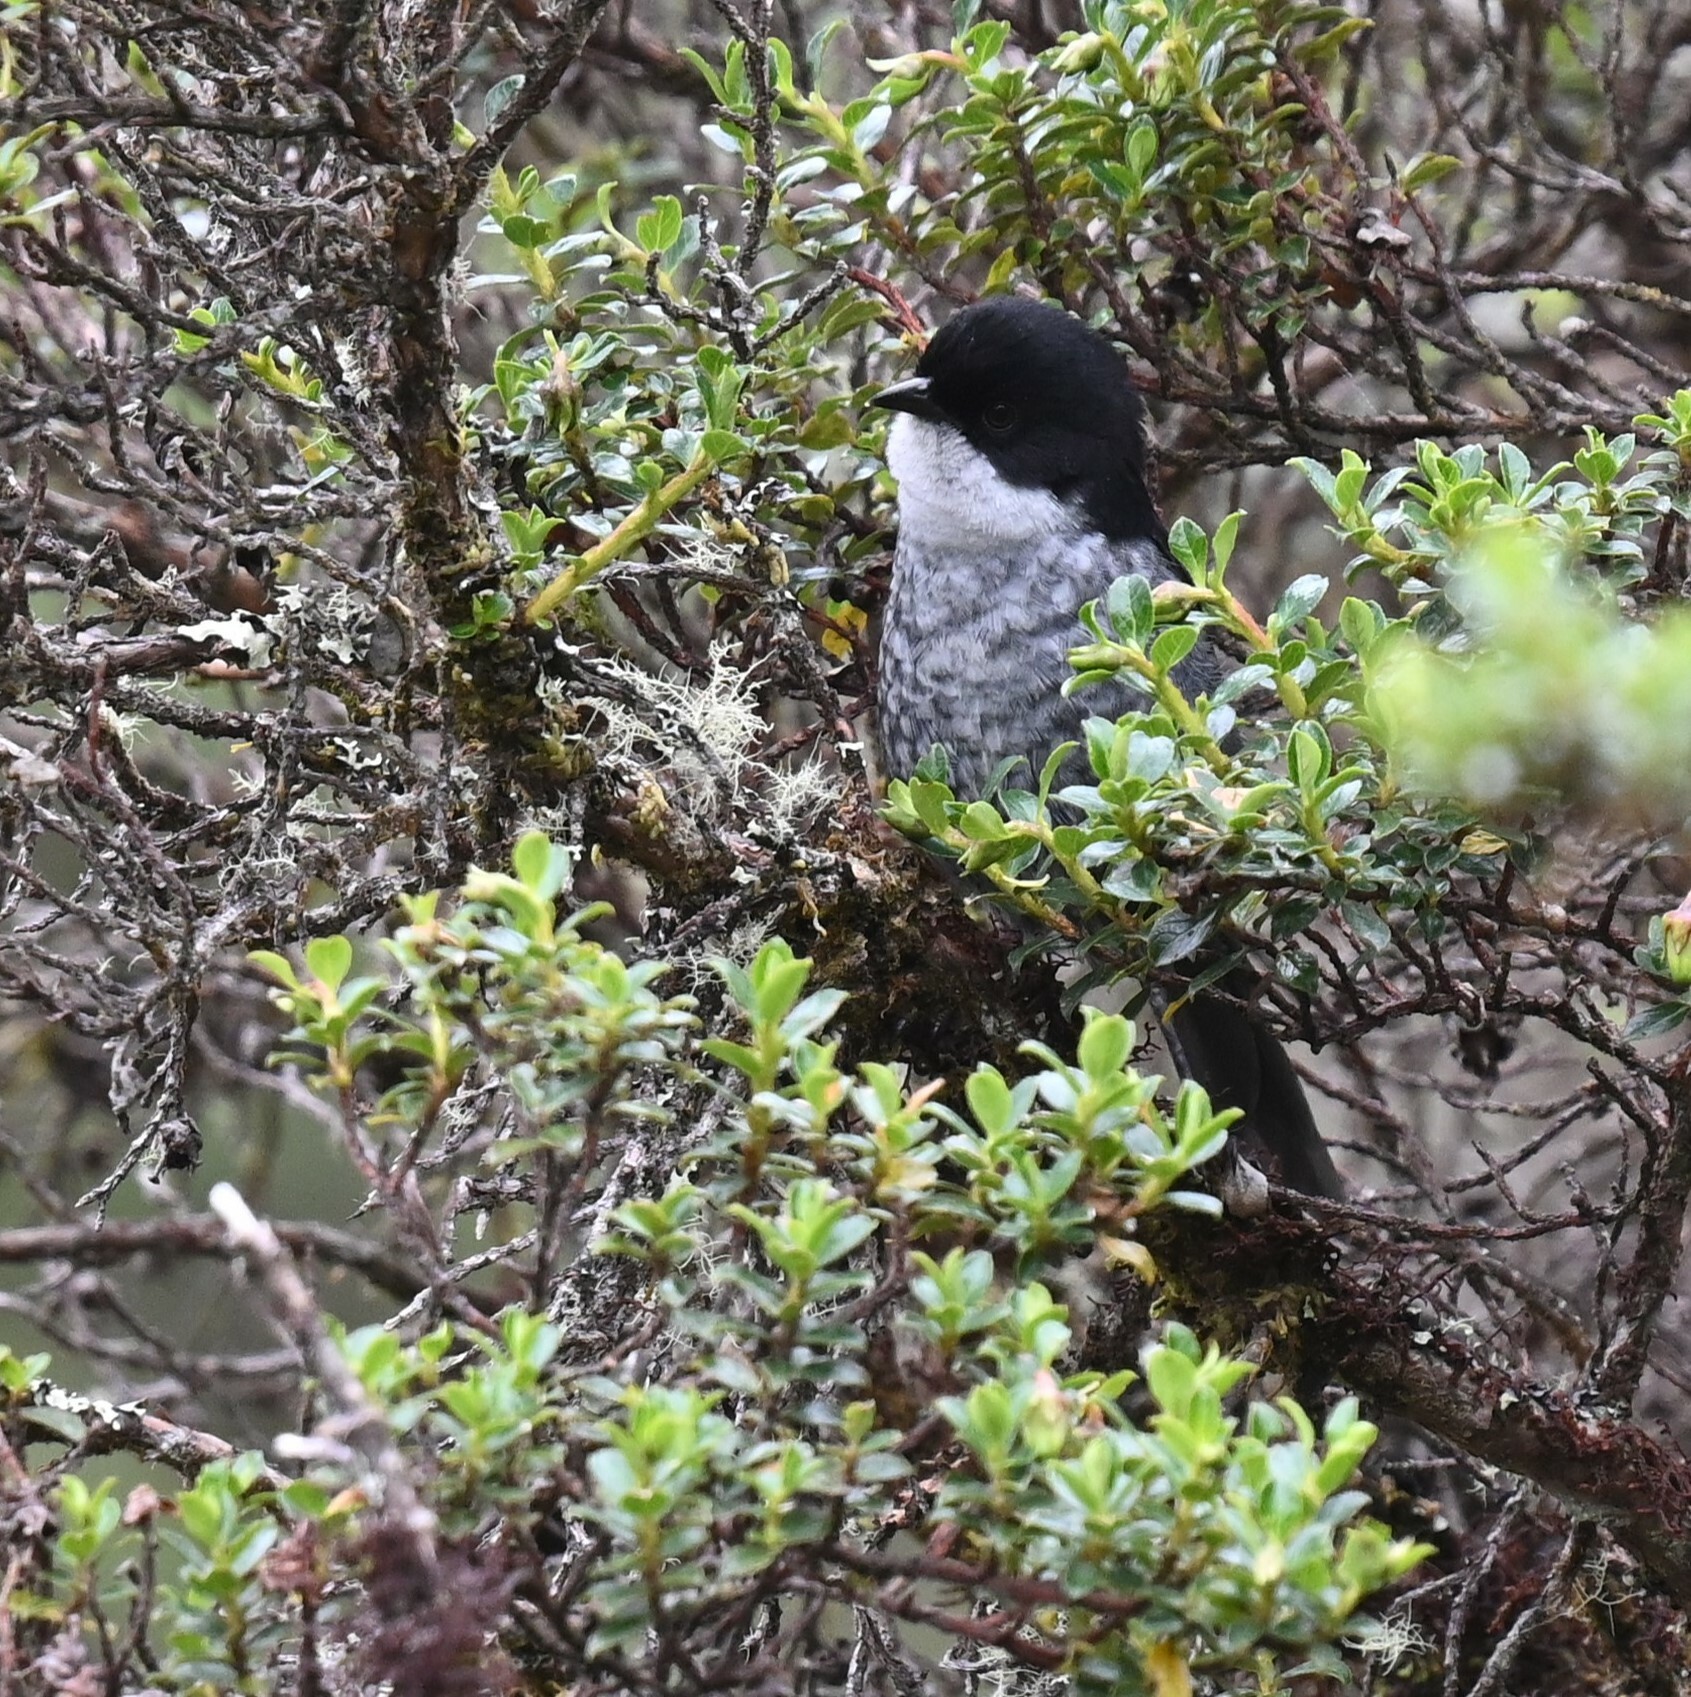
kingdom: Animalia
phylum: Chordata
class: Aves
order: Passeriformes
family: Thraupidae
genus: Urothraupis
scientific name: Urothraupis stolzmanni
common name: Black-backed bush tanager
